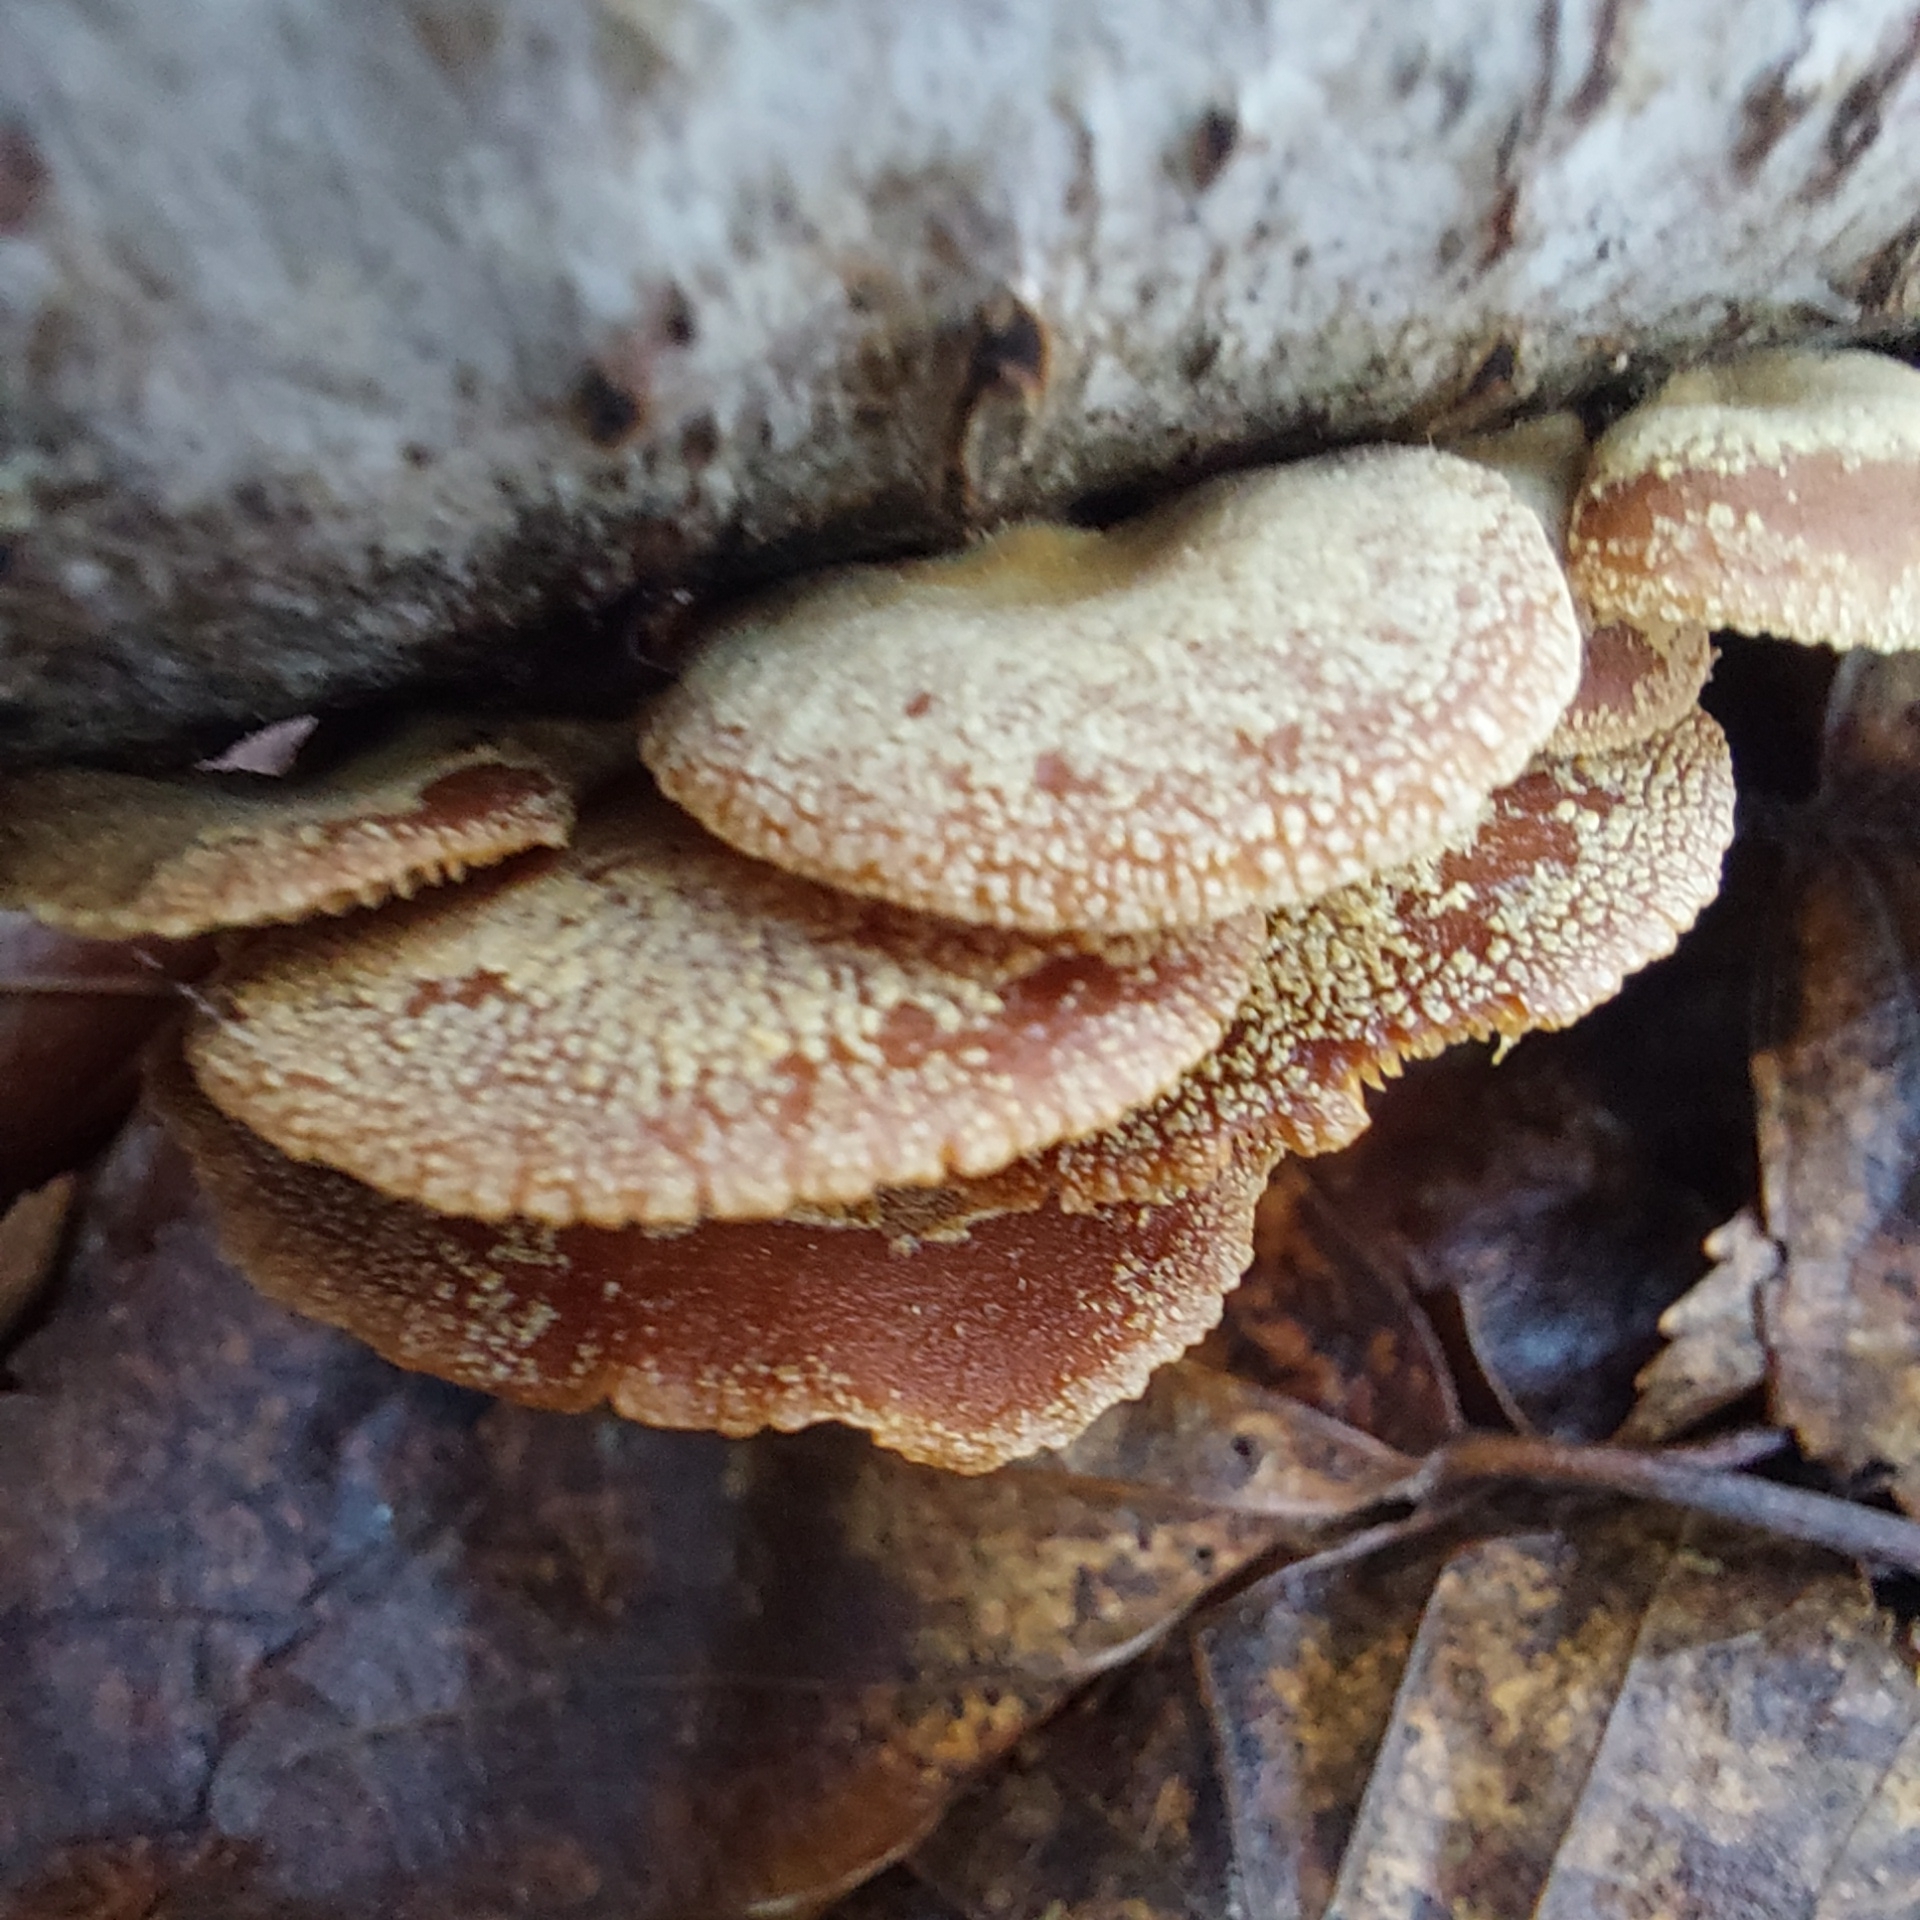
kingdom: Fungi
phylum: Basidiomycota
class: Agaricomycetes
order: Agaricales
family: Mycenaceae
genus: Panellus
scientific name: Panellus stipticus
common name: Bitter oysterling
